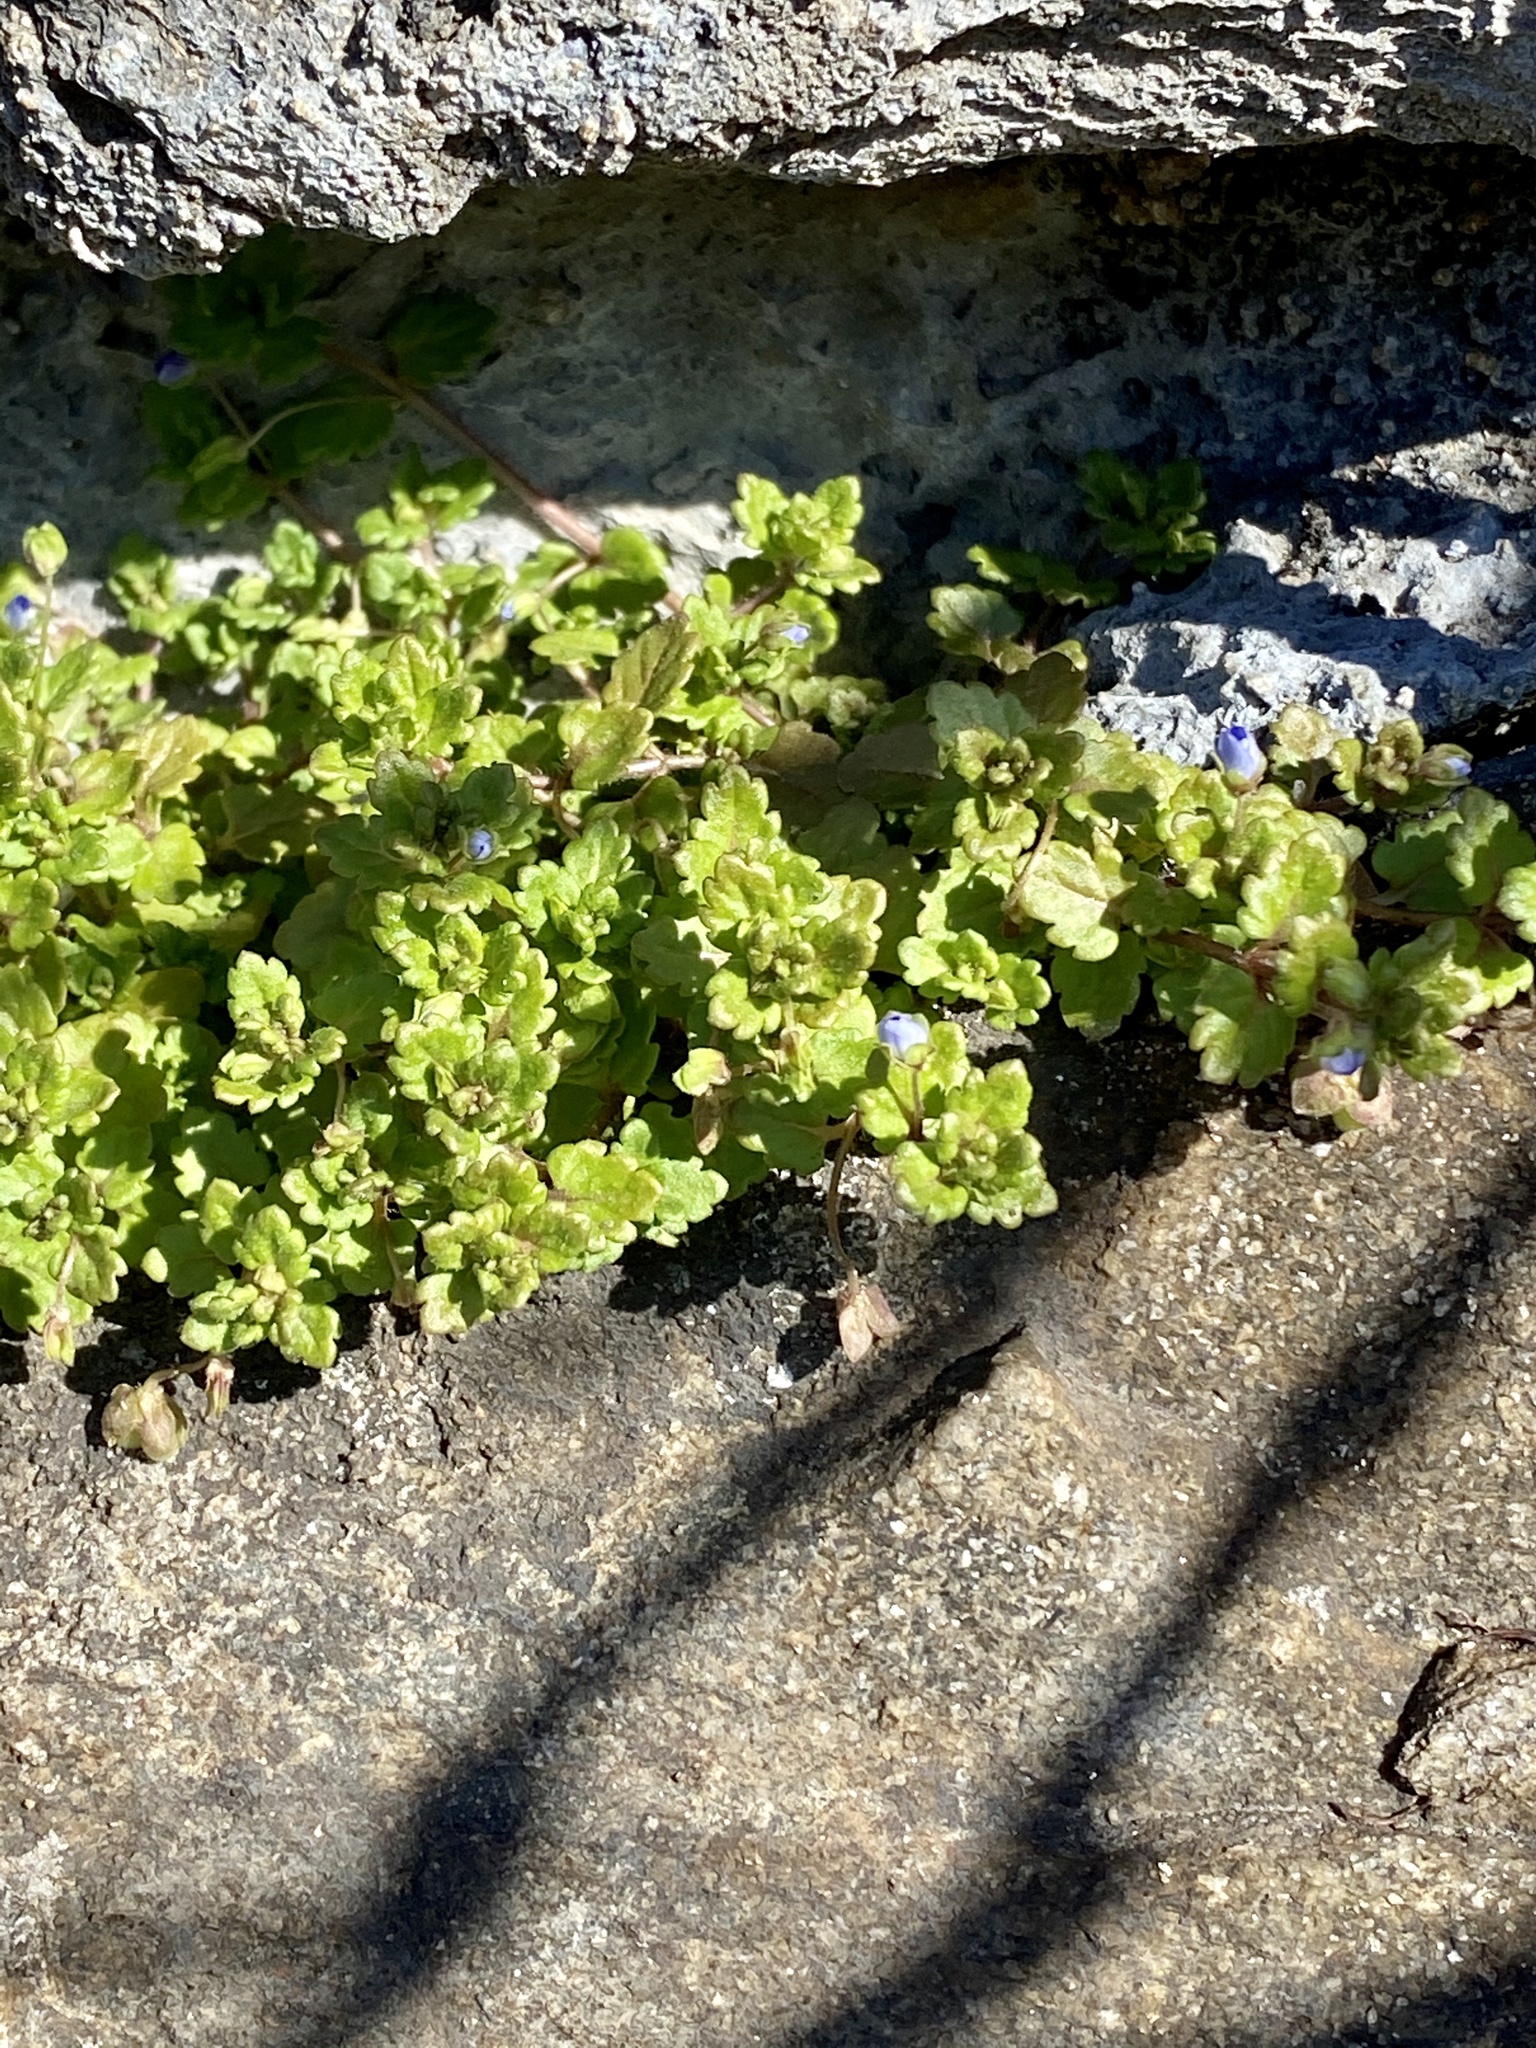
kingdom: Plantae
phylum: Tracheophyta
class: Magnoliopsida
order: Lamiales
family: Plantaginaceae
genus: Veronica
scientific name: Veronica polita
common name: Grey field-speedwell
